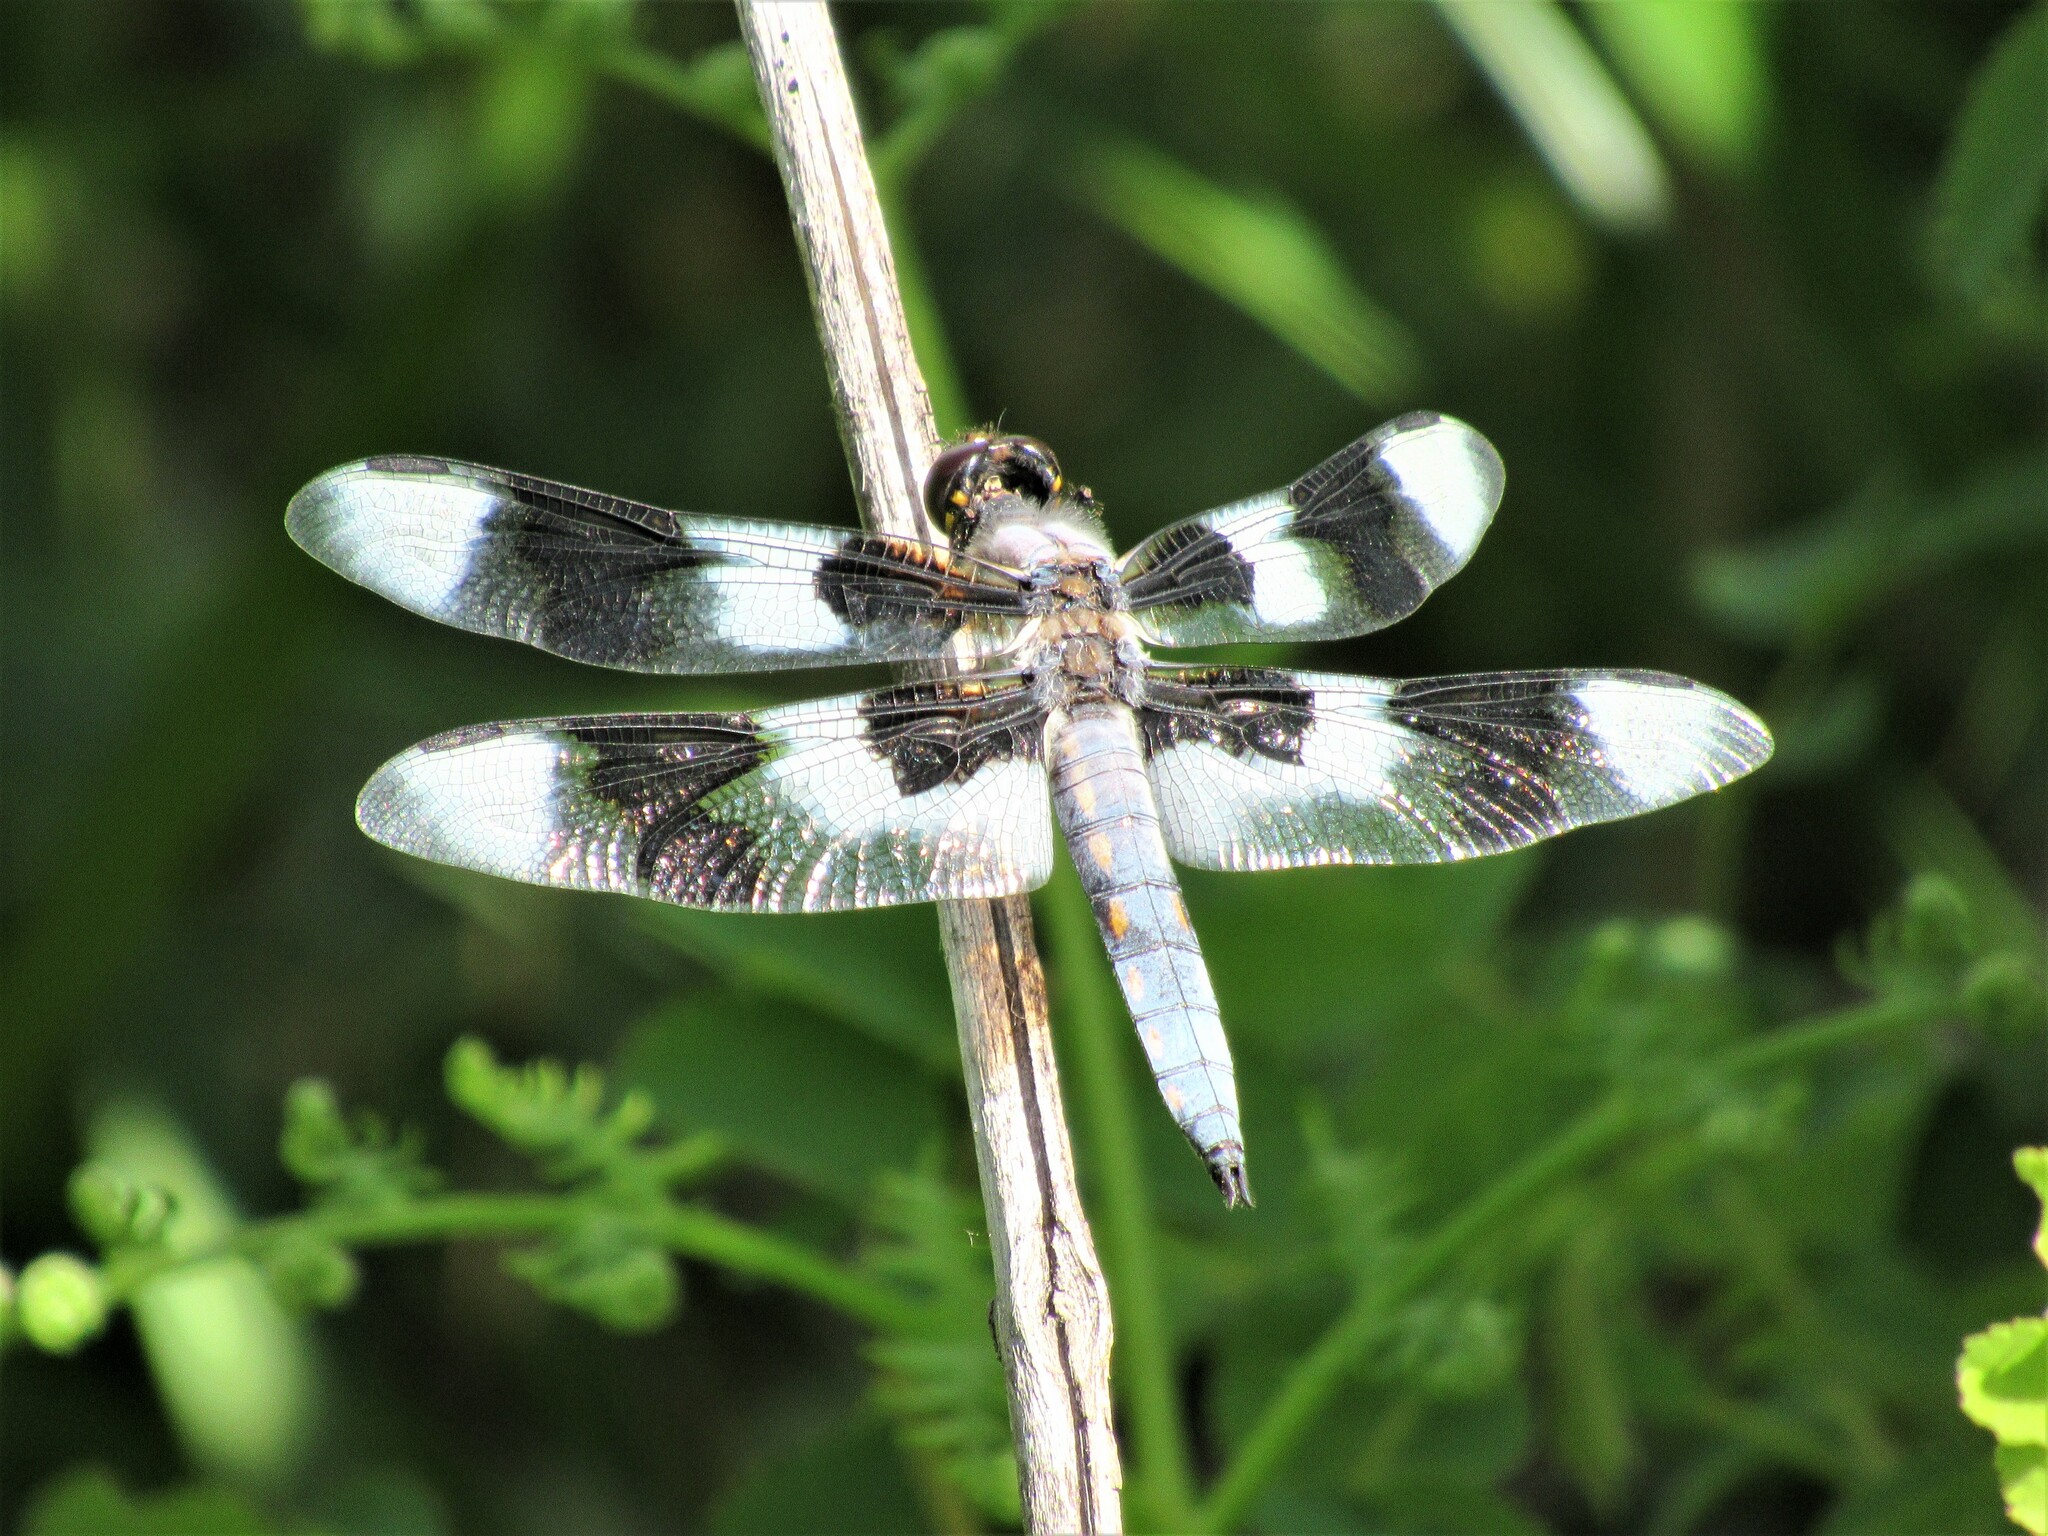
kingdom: Animalia
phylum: Arthropoda
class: Insecta
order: Odonata
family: Libellulidae
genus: Libellula
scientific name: Libellula forensis
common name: Eight-spotted skimmer
